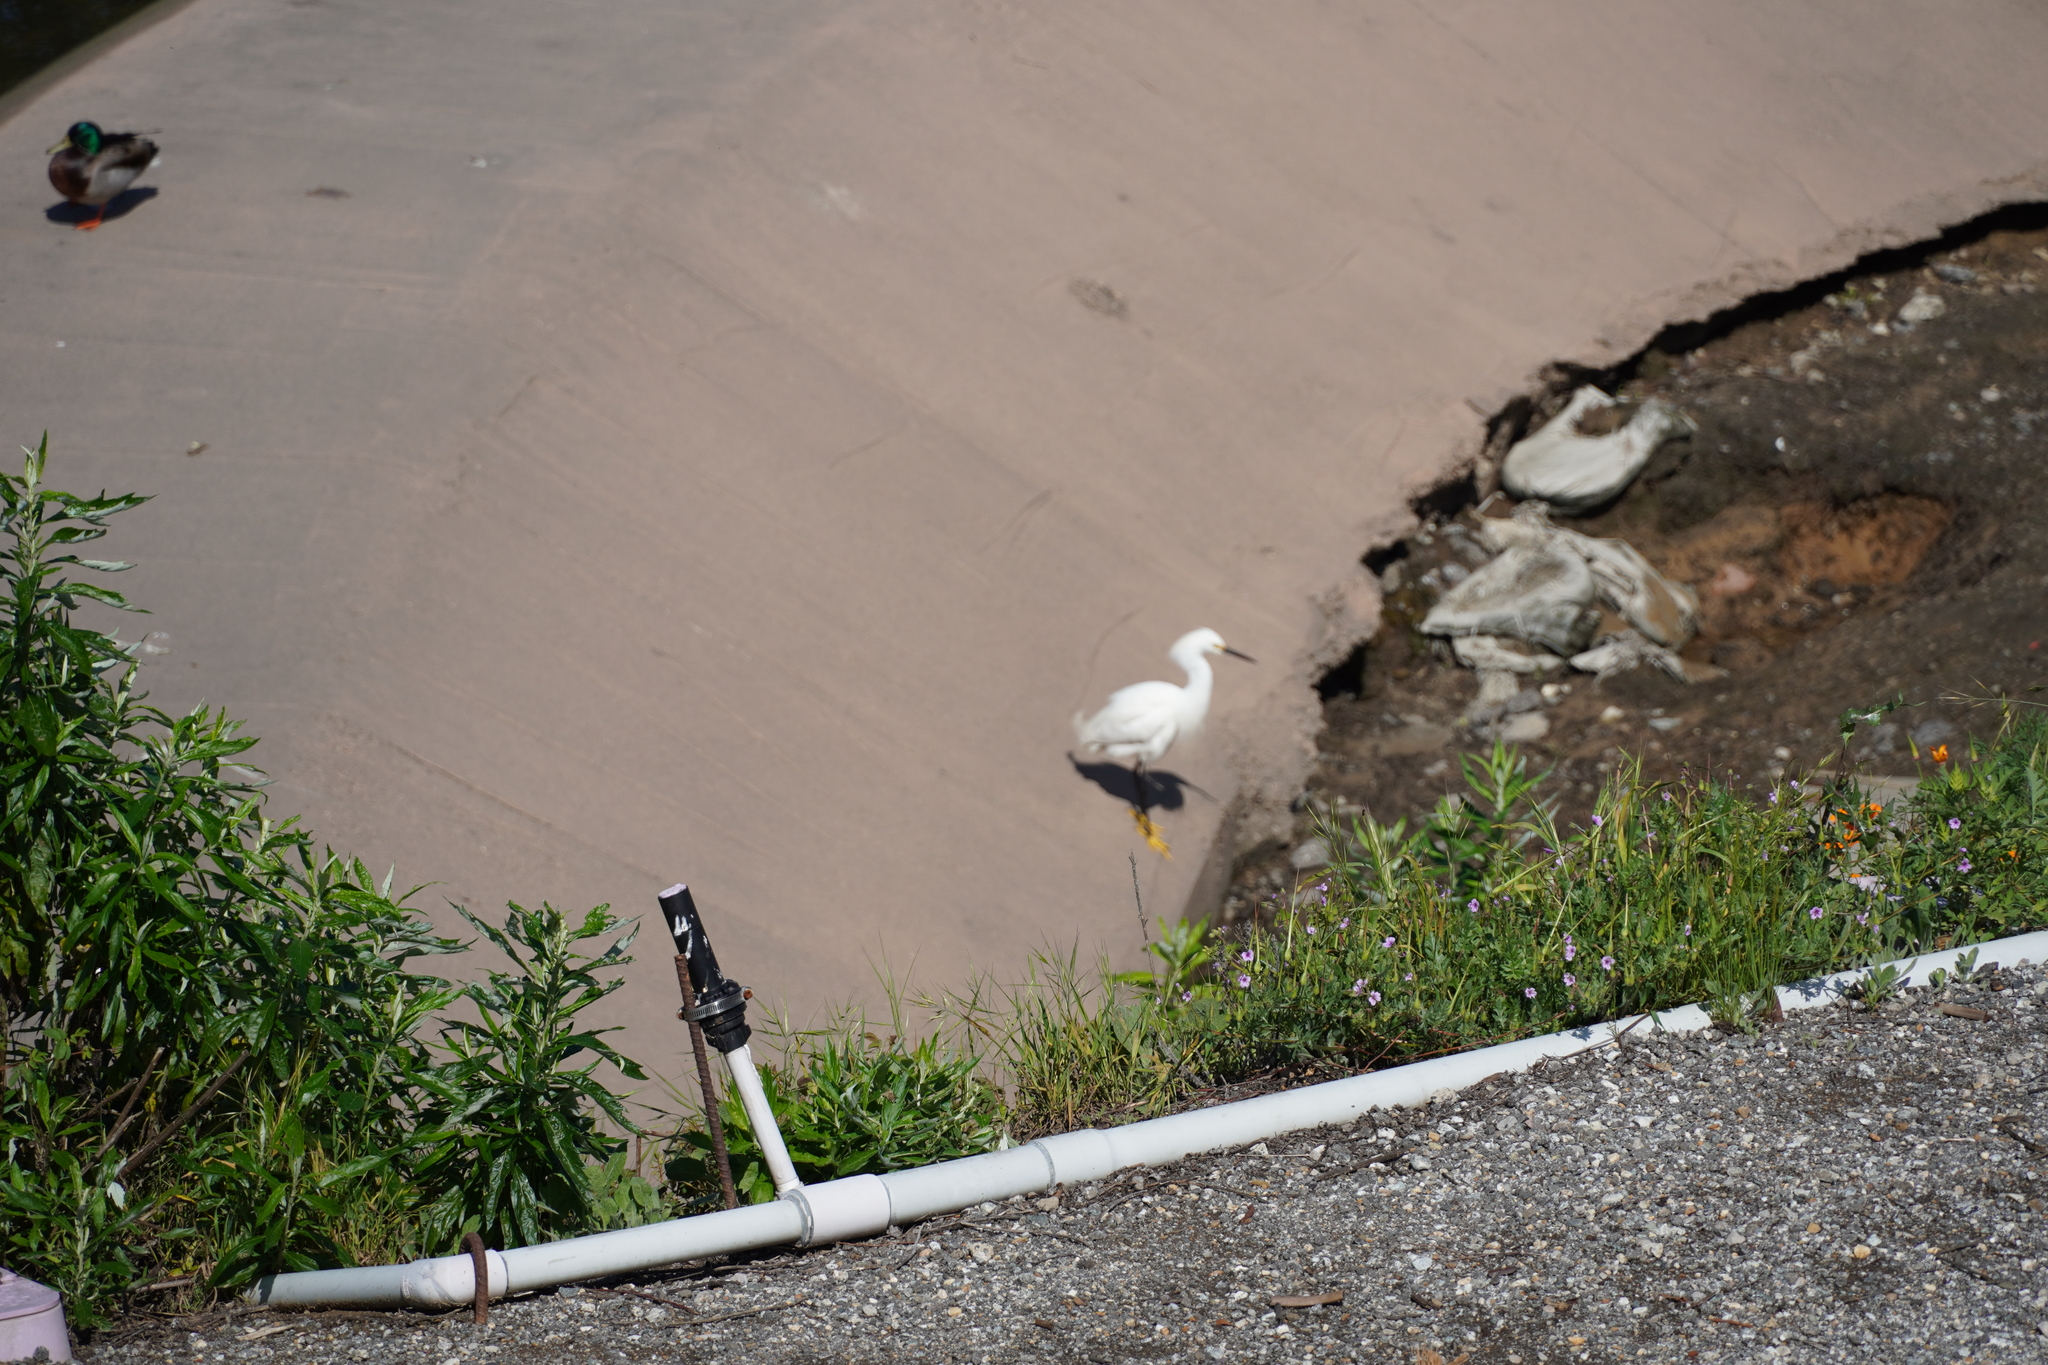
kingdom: Animalia
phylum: Chordata
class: Aves
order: Pelecaniformes
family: Ardeidae
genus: Egretta
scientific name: Egretta thula
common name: Snowy egret
